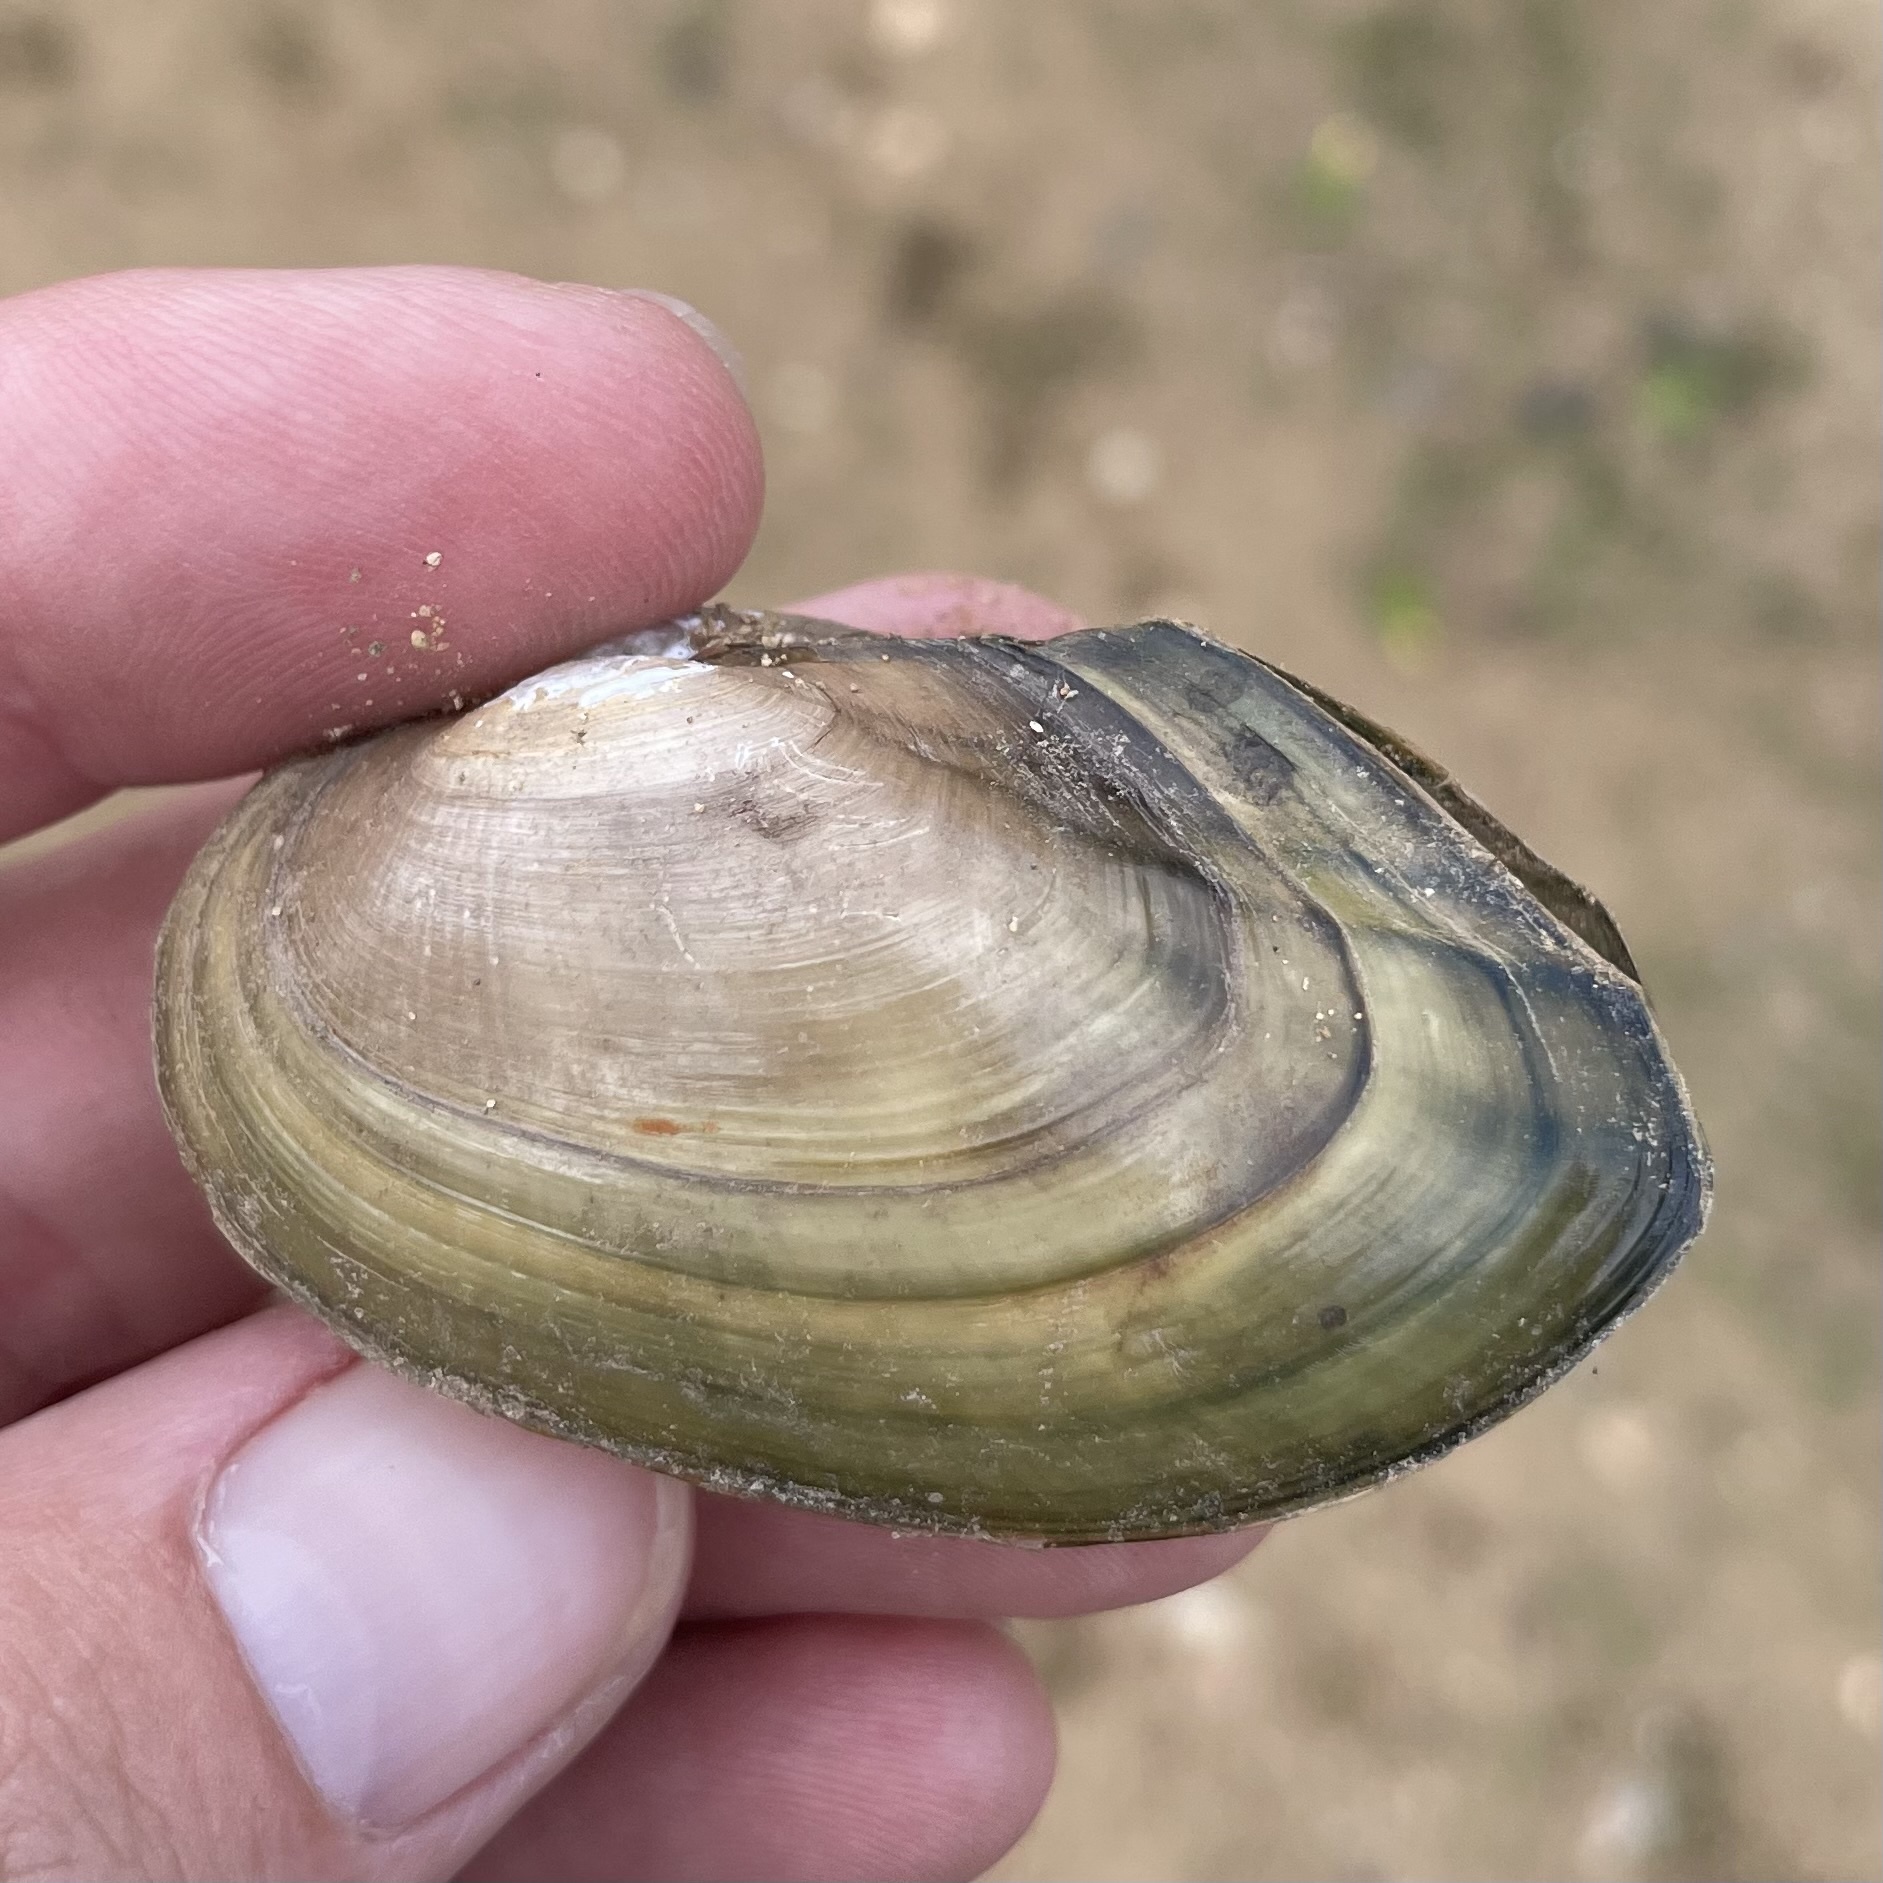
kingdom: Animalia
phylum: Mollusca
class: Bivalvia
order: Unionida
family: Unionidae
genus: Pyganodon
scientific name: Pyganodon cataracta
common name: Eastern floater
